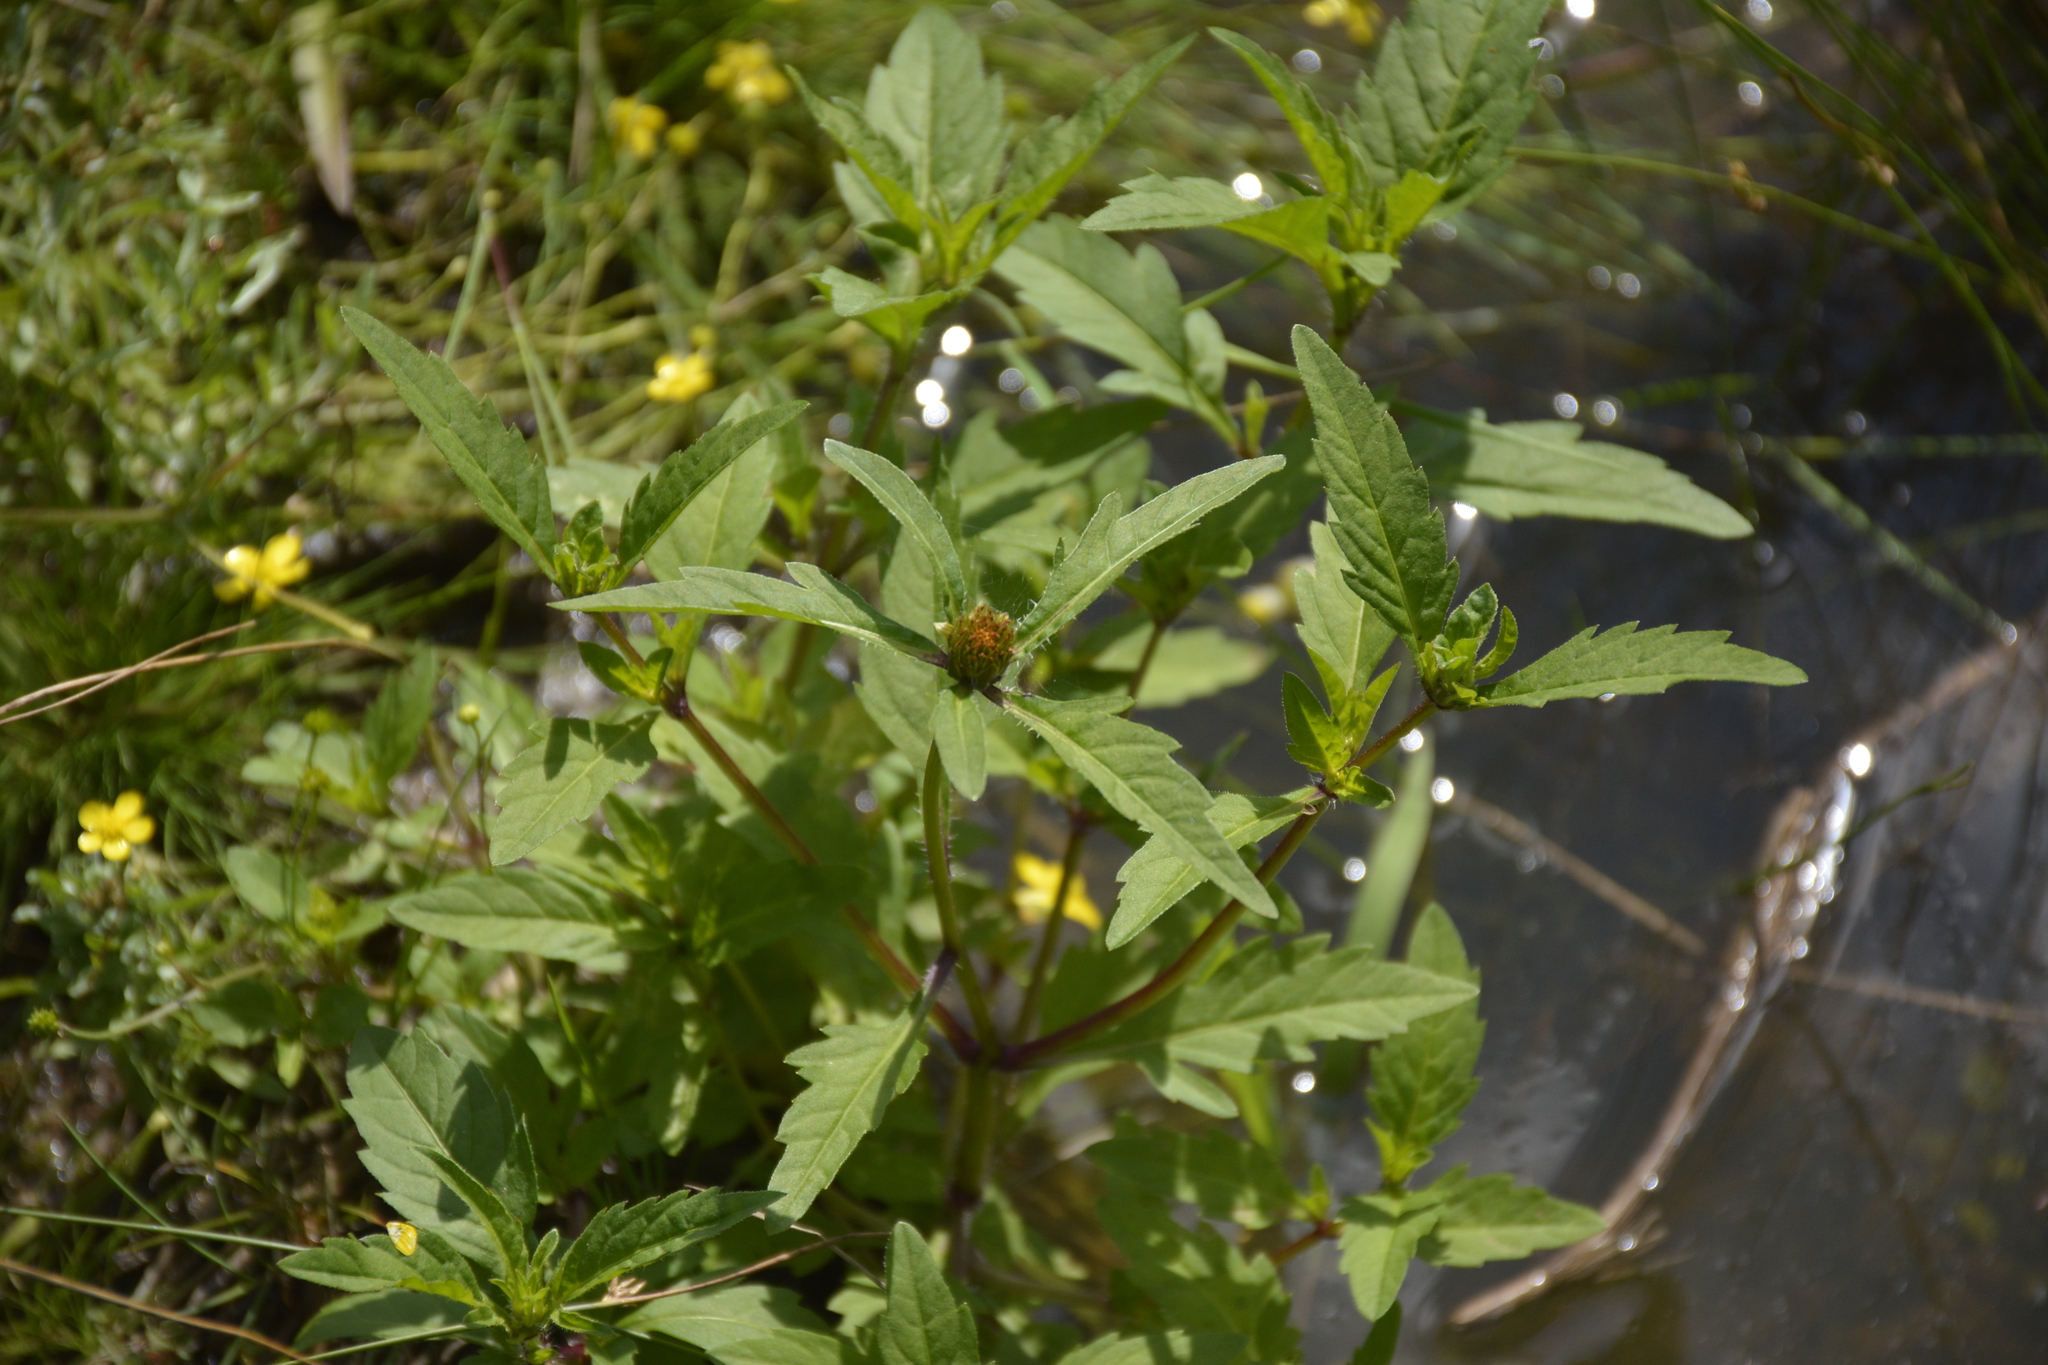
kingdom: Plantae
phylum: Tracheophyta
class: Magnoliopsida
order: Asterales
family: Asteraceae
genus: Bidens
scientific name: Bidens tripartita
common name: Trifid bur-marigold
